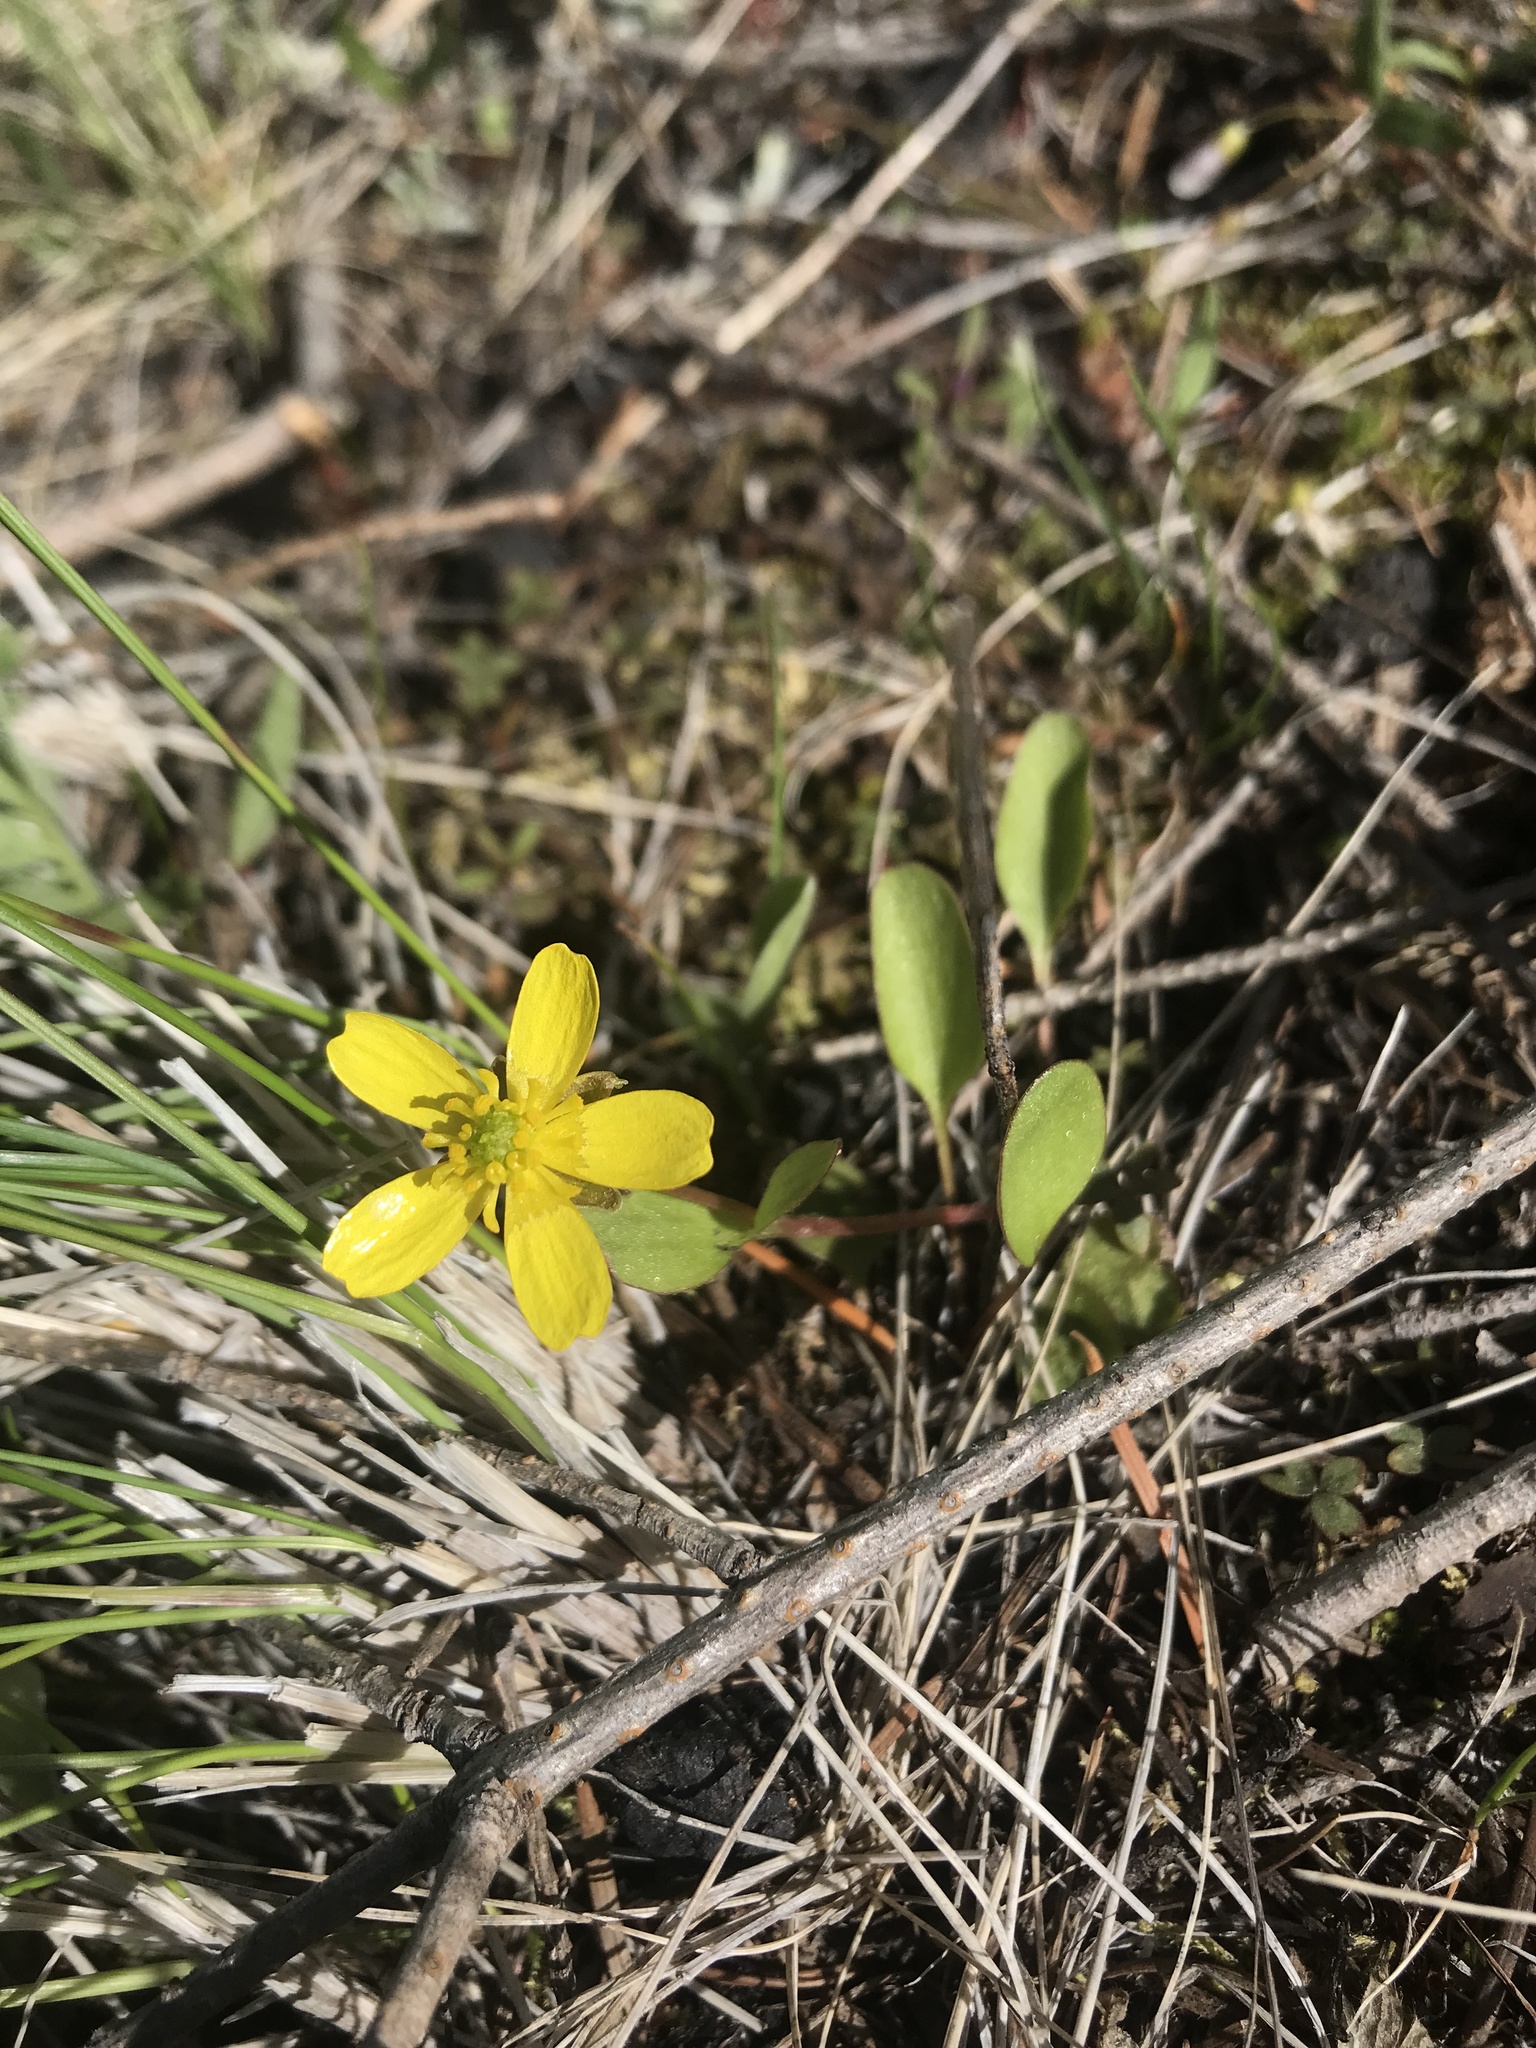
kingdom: Plantae
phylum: Tracheophyta
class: Magnoliopsida
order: Ranunculales
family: Ranunculaceae
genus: Ranunculus
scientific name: Ranunculus glaberrimus
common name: Sagebrush buttercup
